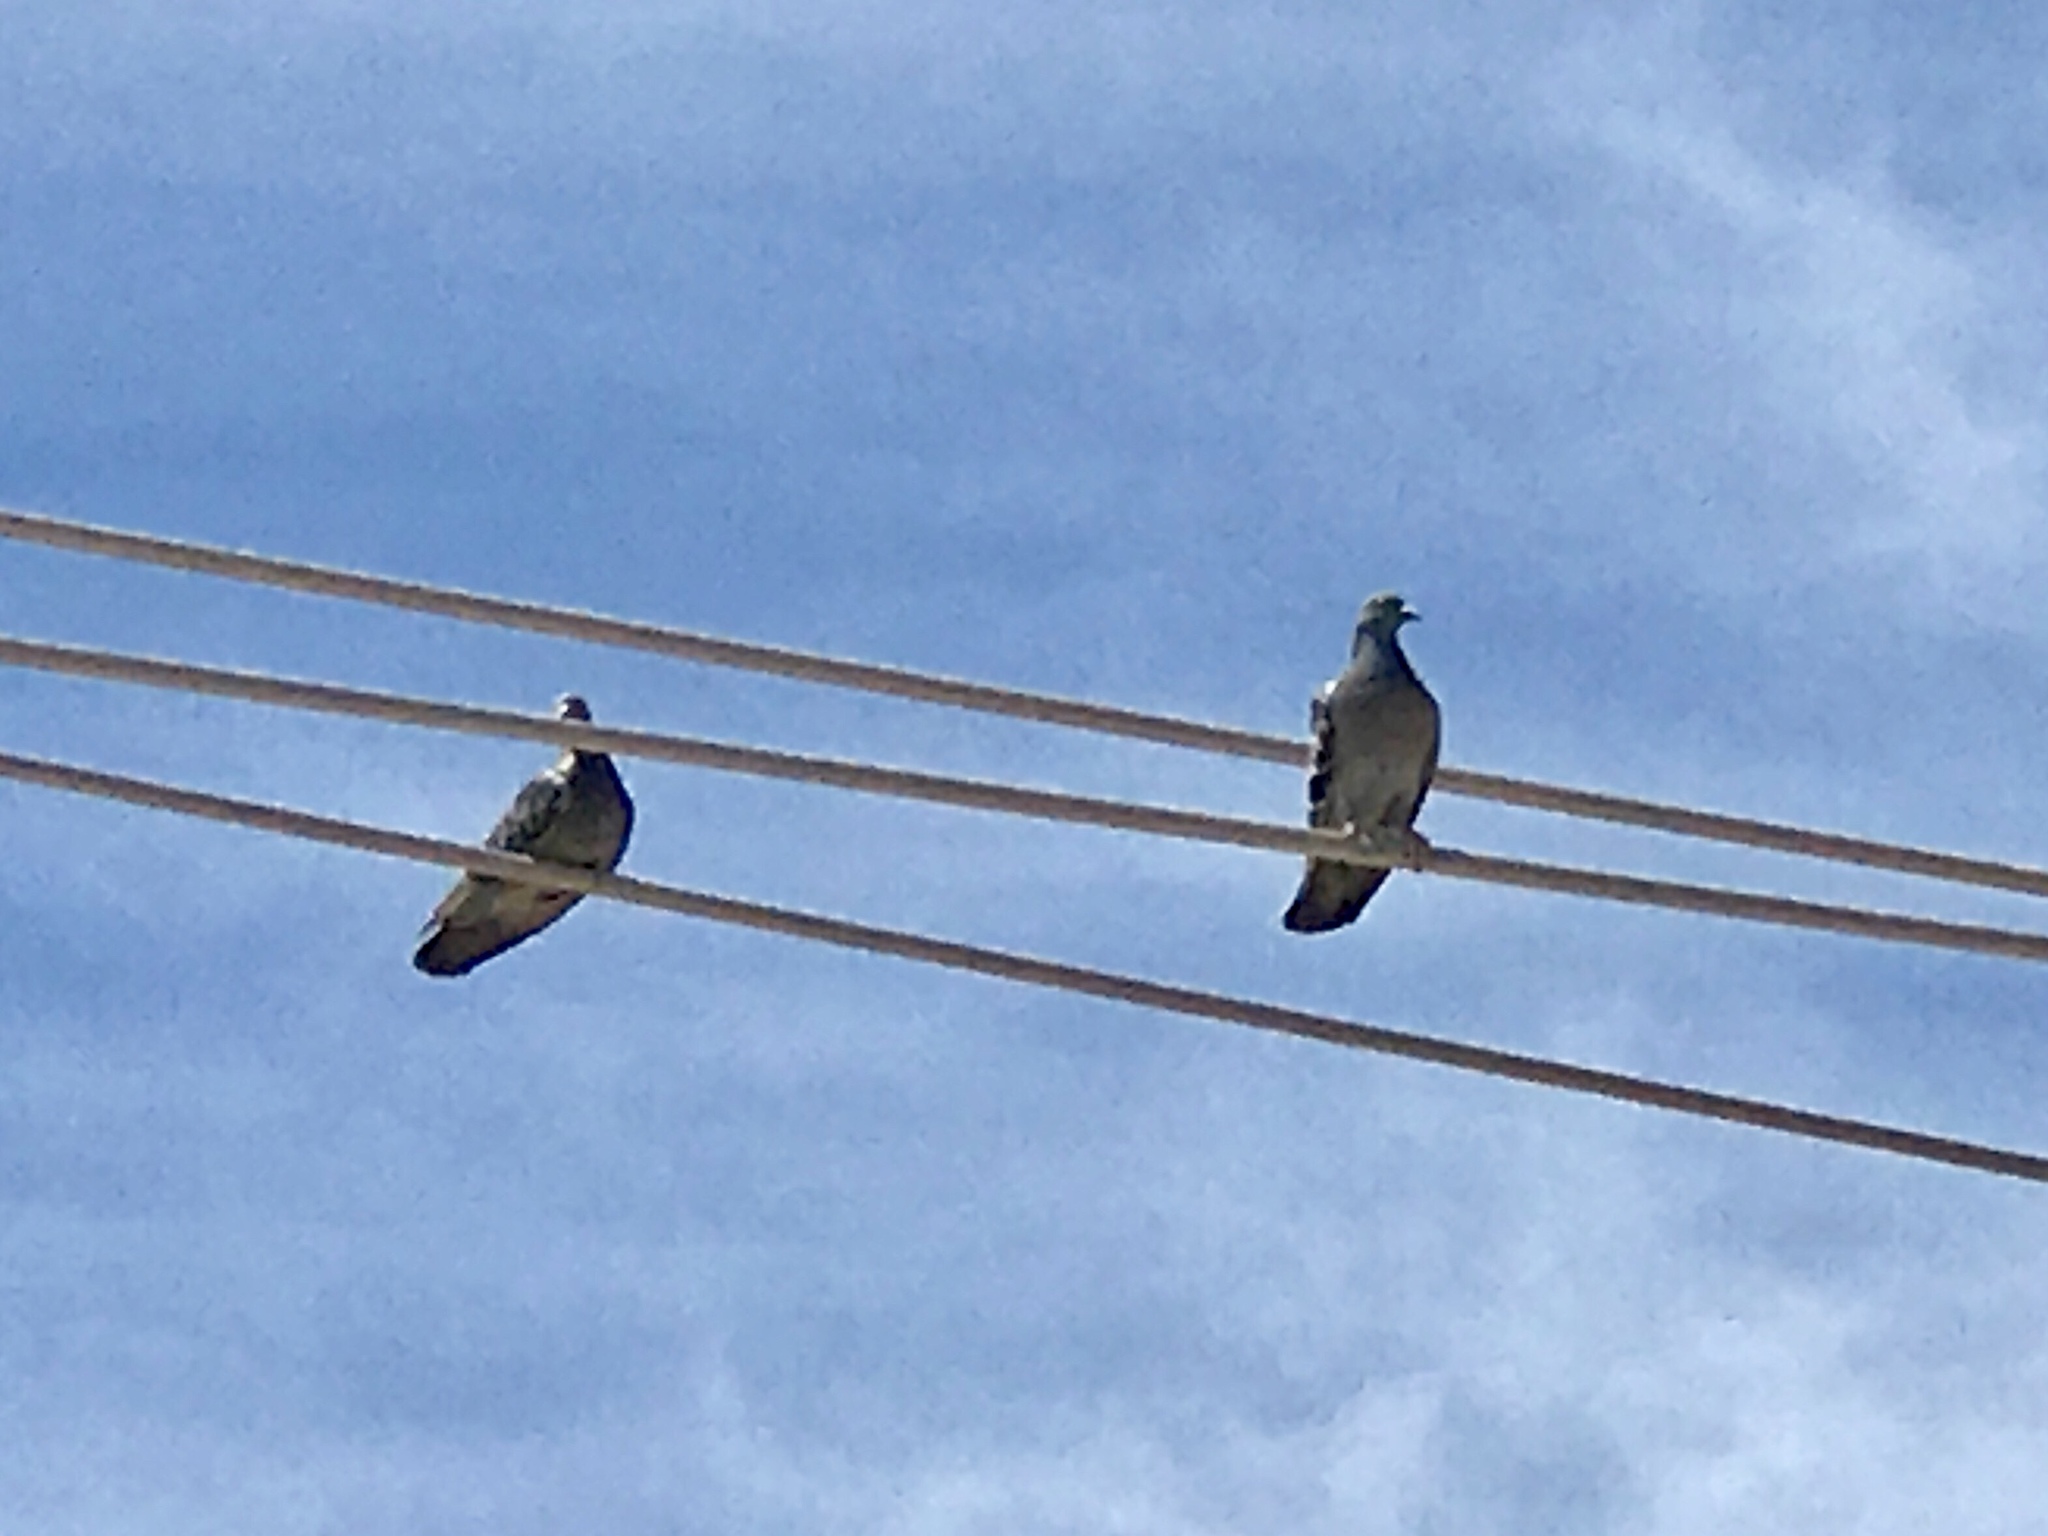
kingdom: Animalia
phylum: Chordata
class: Aves
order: Columbiformes
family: Columbidae
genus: Columba
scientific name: Columba livia
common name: Rock pigeon
